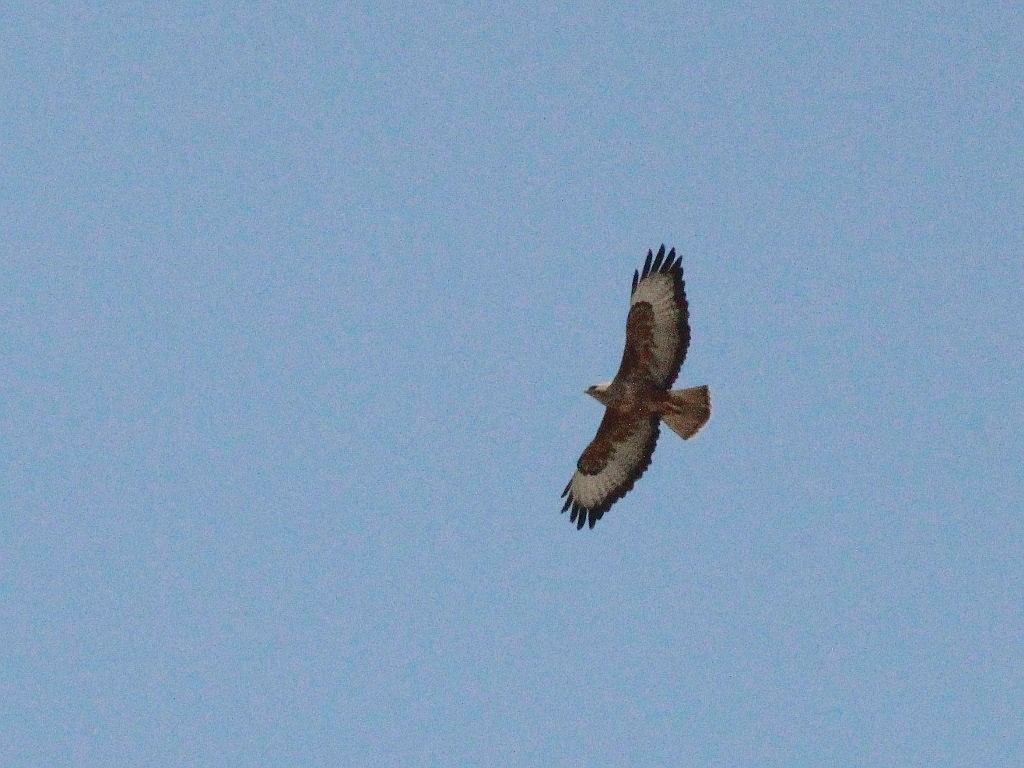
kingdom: Animalia
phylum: Chordata
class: Aves
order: Accipitriformes
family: Accipitridae
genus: Buteo
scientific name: Buteo buteo
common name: Common buzzard
